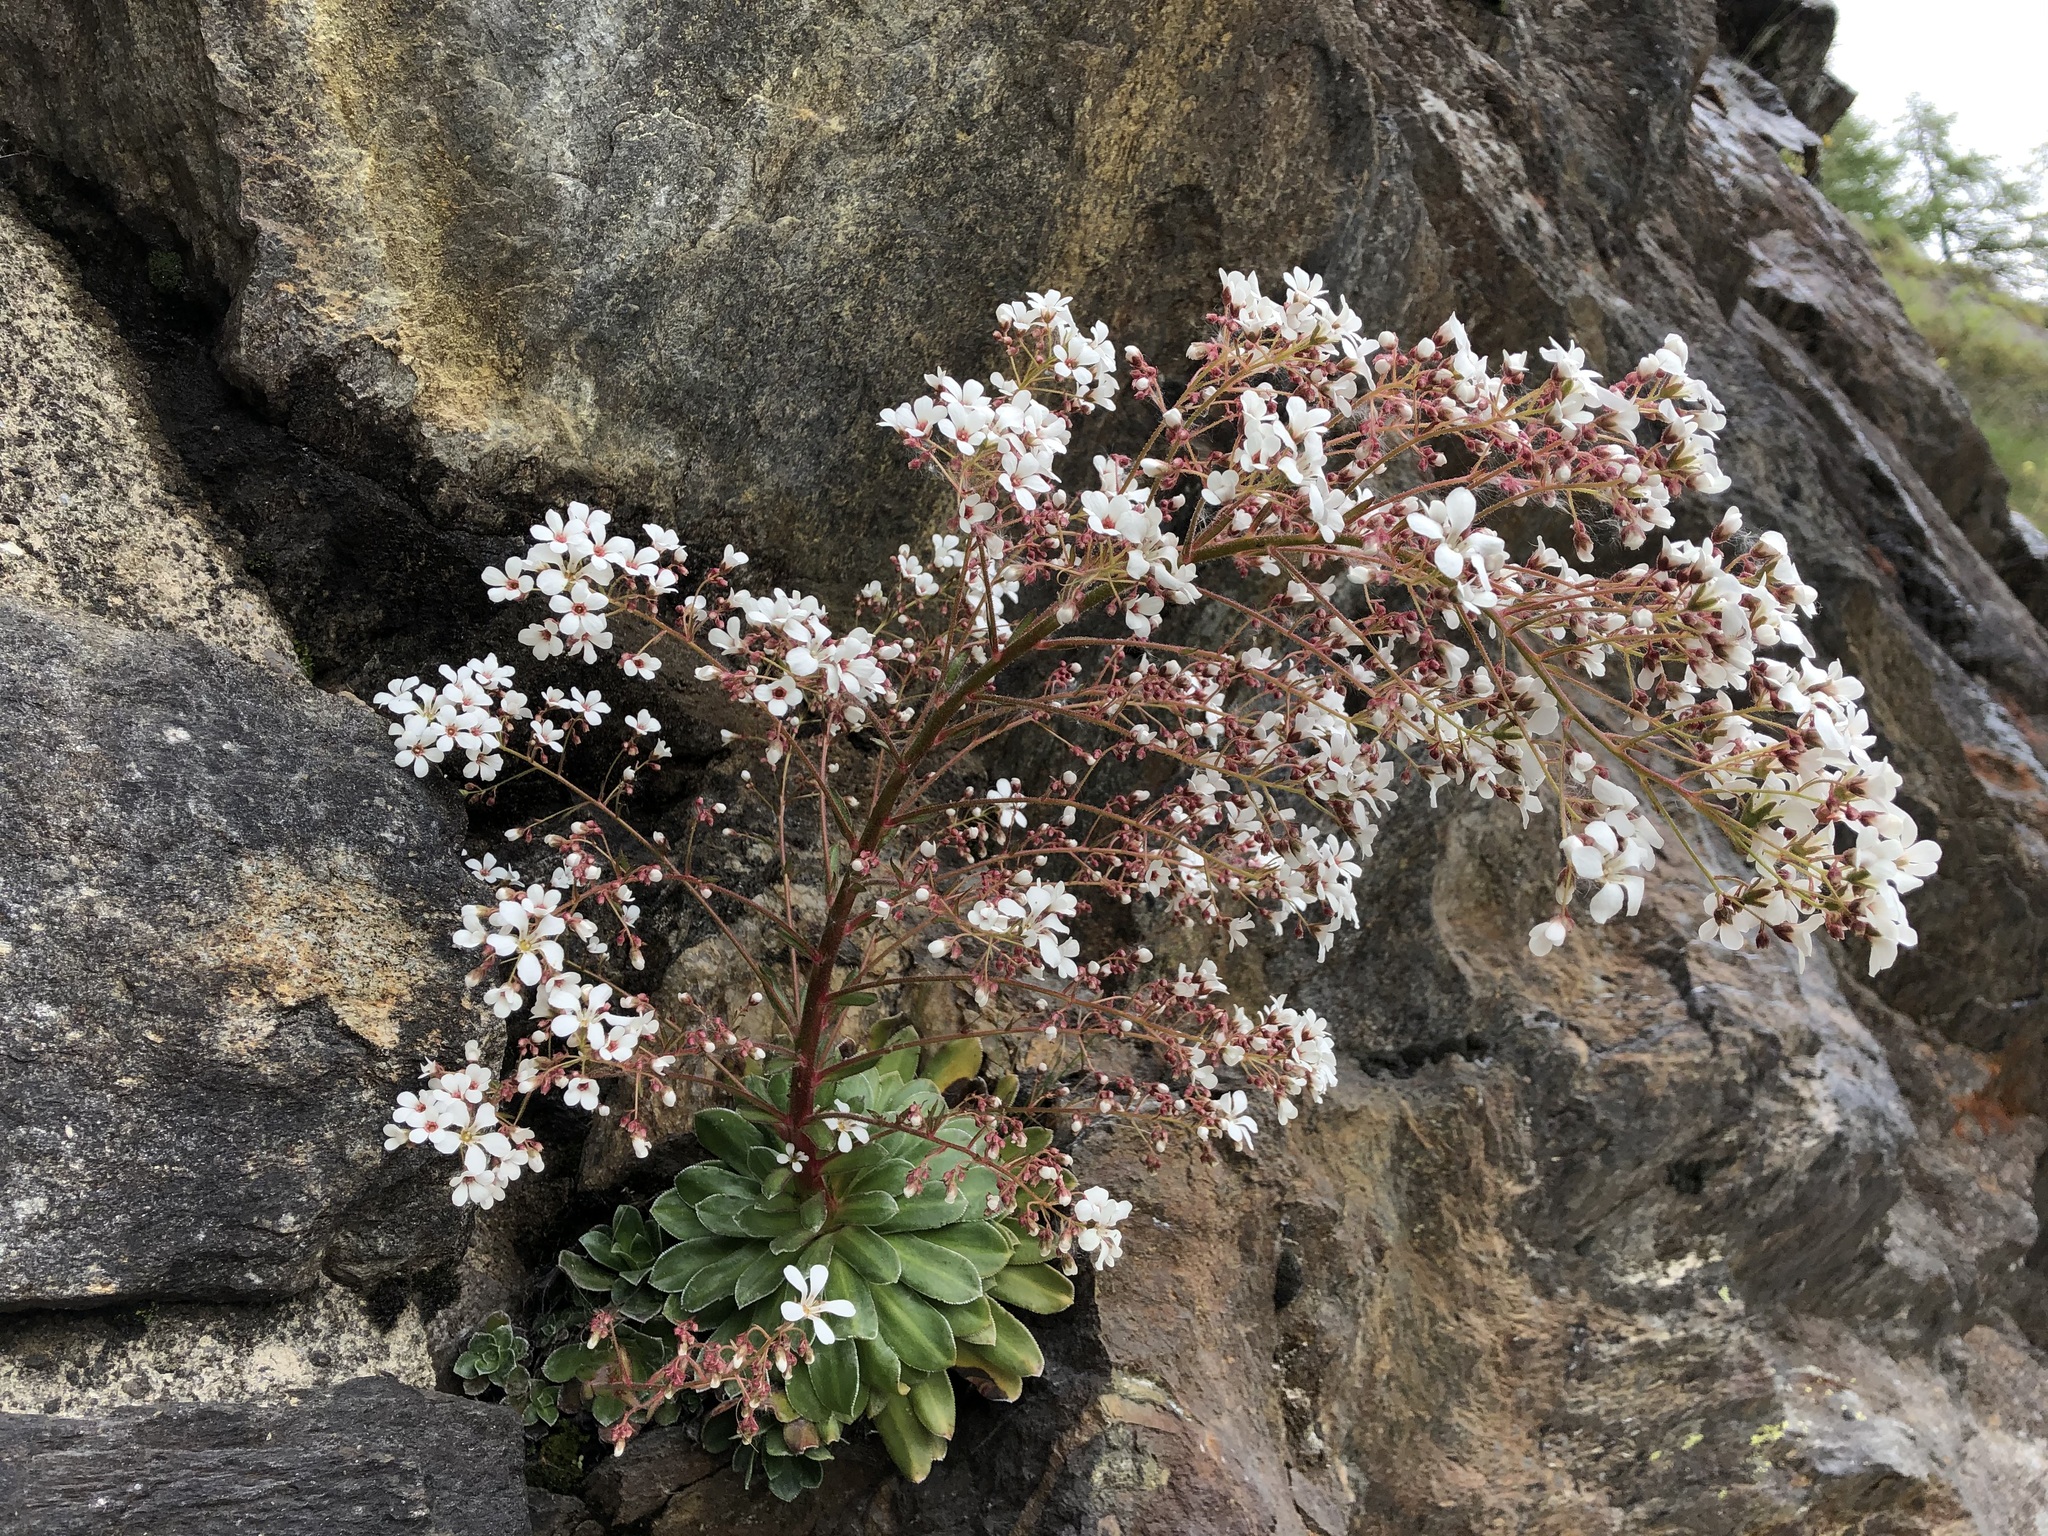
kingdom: Plantae
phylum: Tracheophyta
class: Magnoliopsida
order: Saxifragales
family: Saxifragaceae
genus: Saxifraga
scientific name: Saxifraga cotyledon
